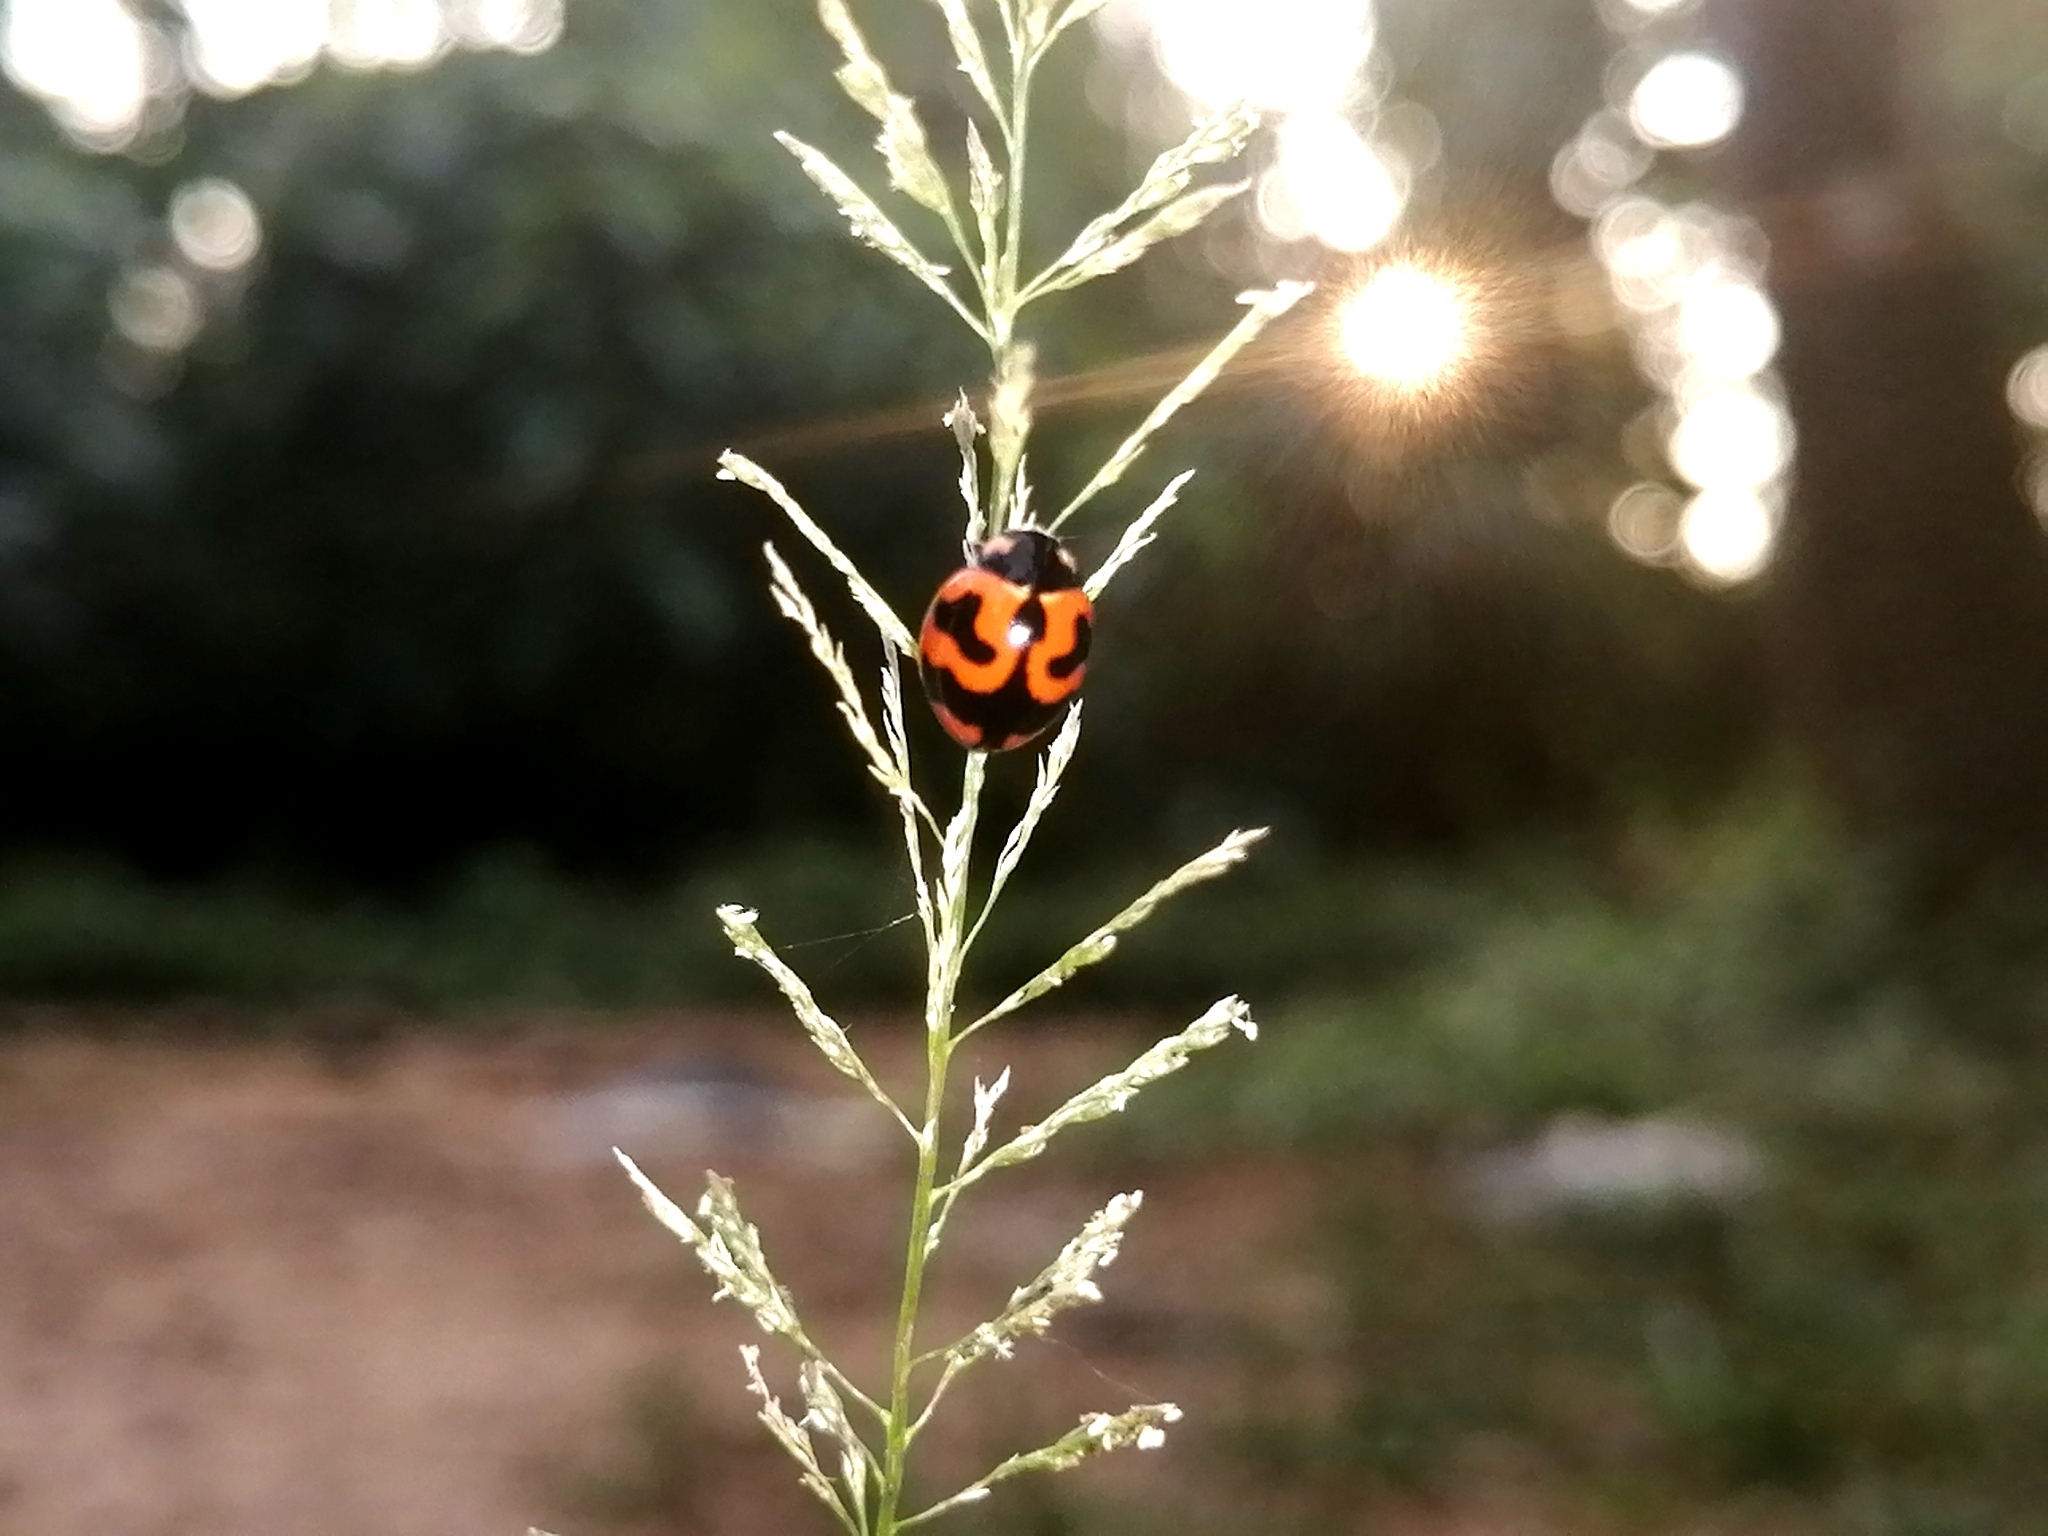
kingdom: Animalia
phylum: Arthropoda
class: Insecta
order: Coleoptera
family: Coccinellidae
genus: Coccinella
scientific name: Coccinella transversalis
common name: Transverse lady beetle
